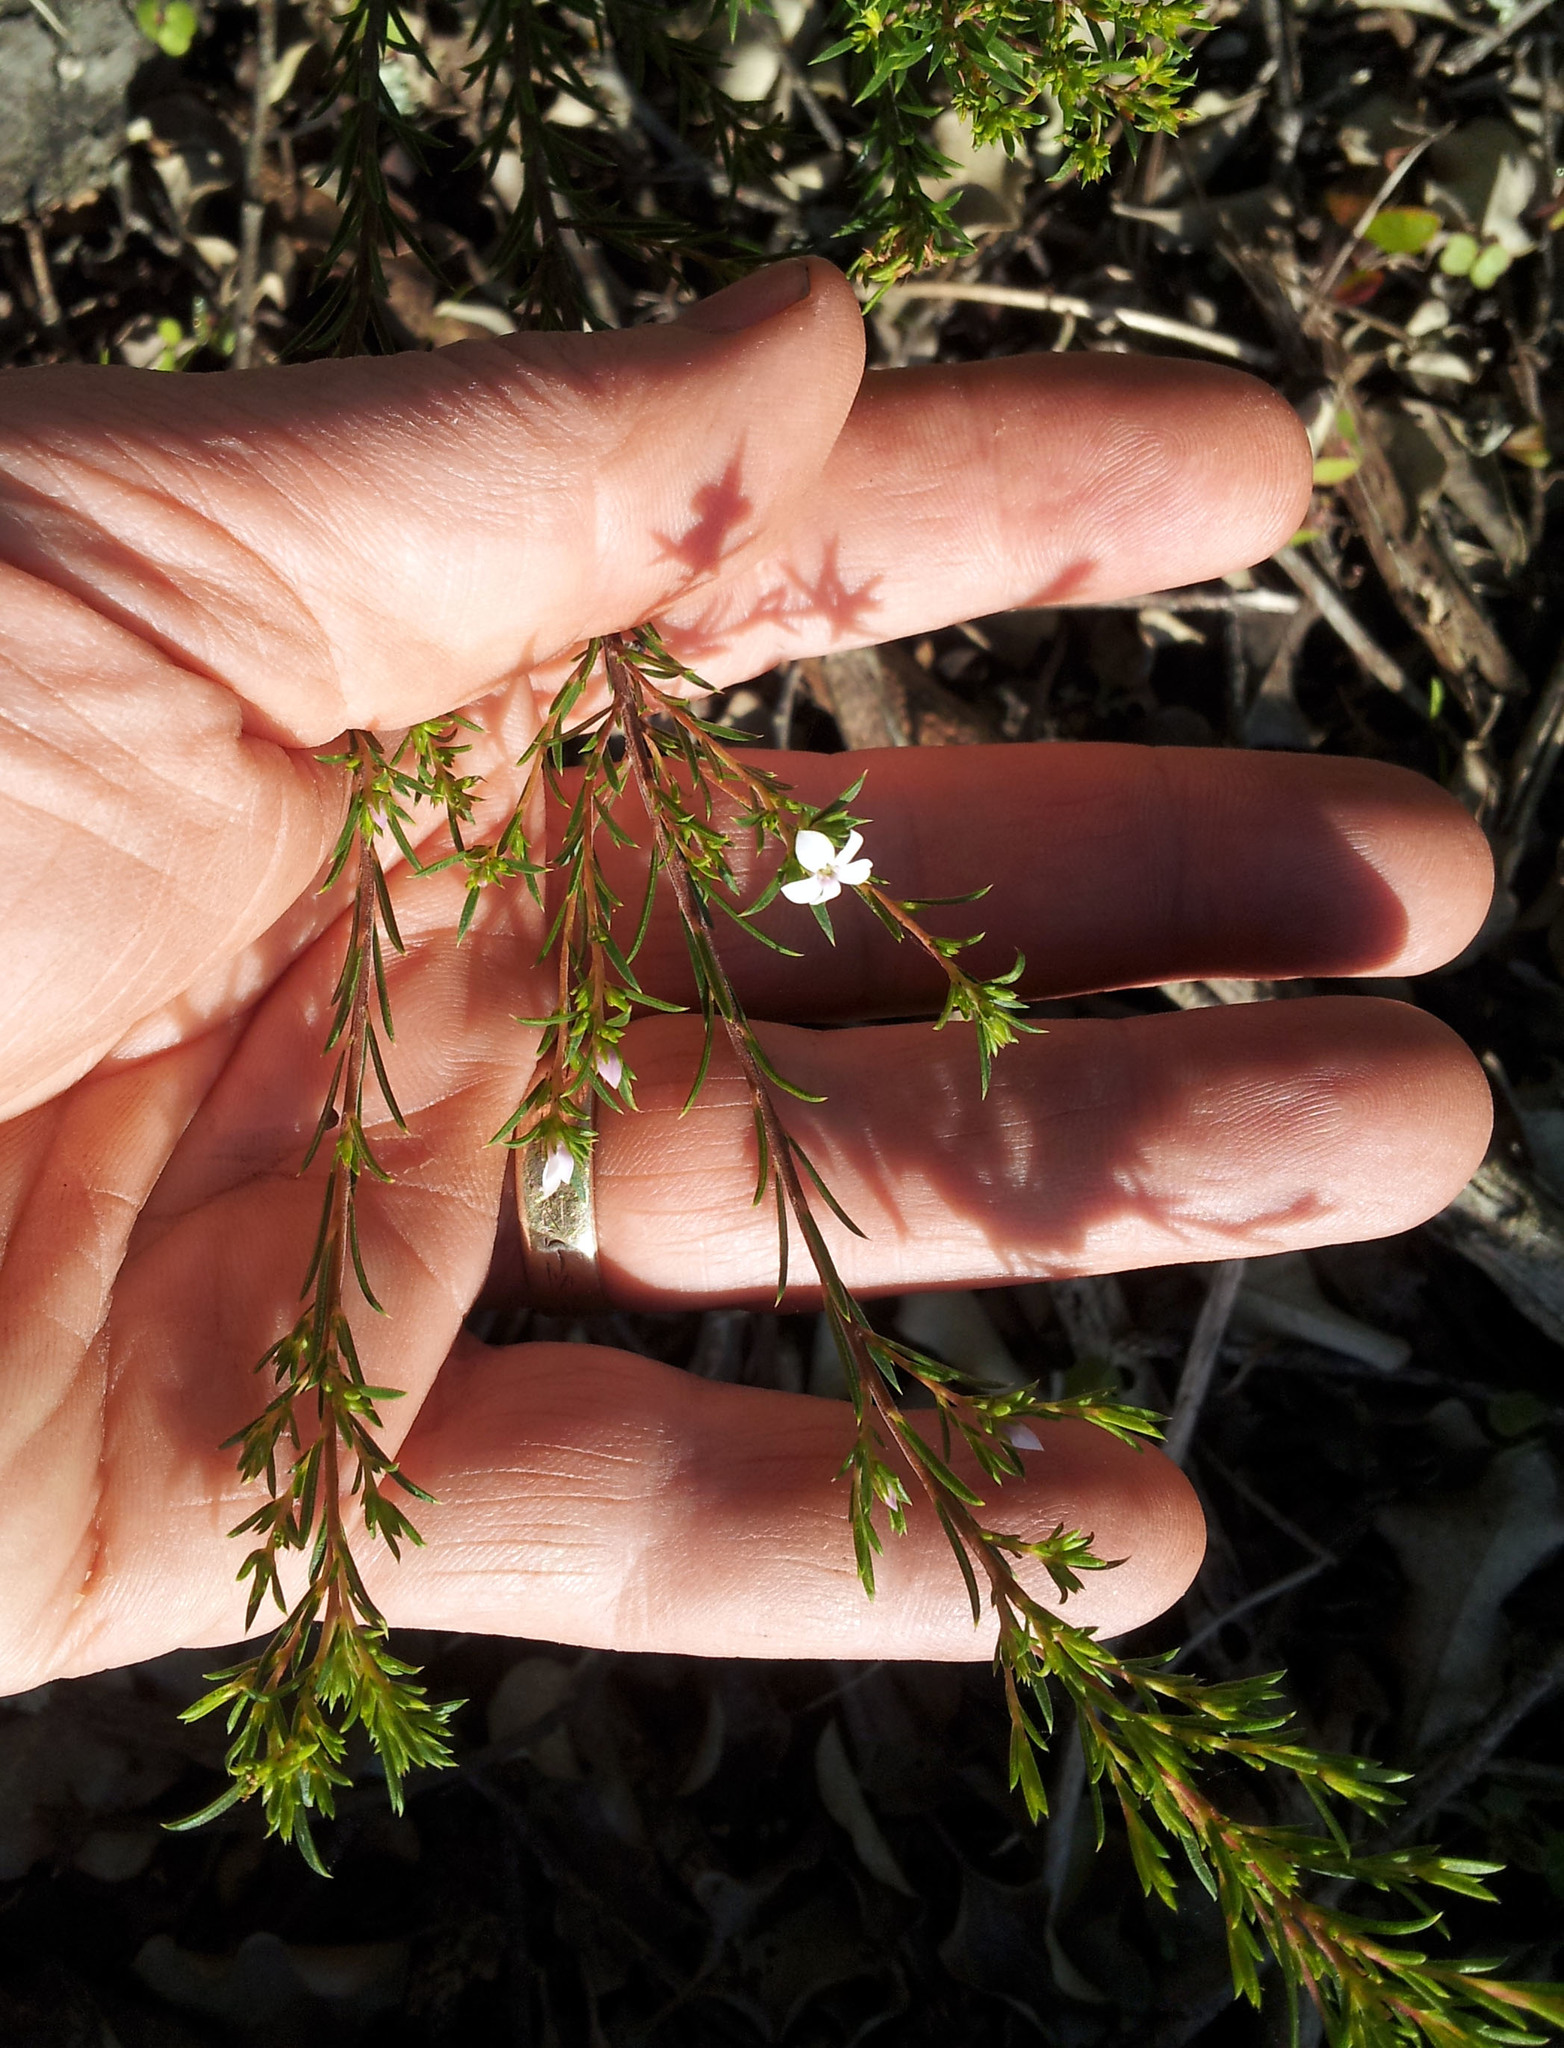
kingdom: Plantae
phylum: Tracheophyta
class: Magnoliopsida
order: Sapindales
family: Rutaceae
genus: Coleonema
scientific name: Coleonema pulchellum
